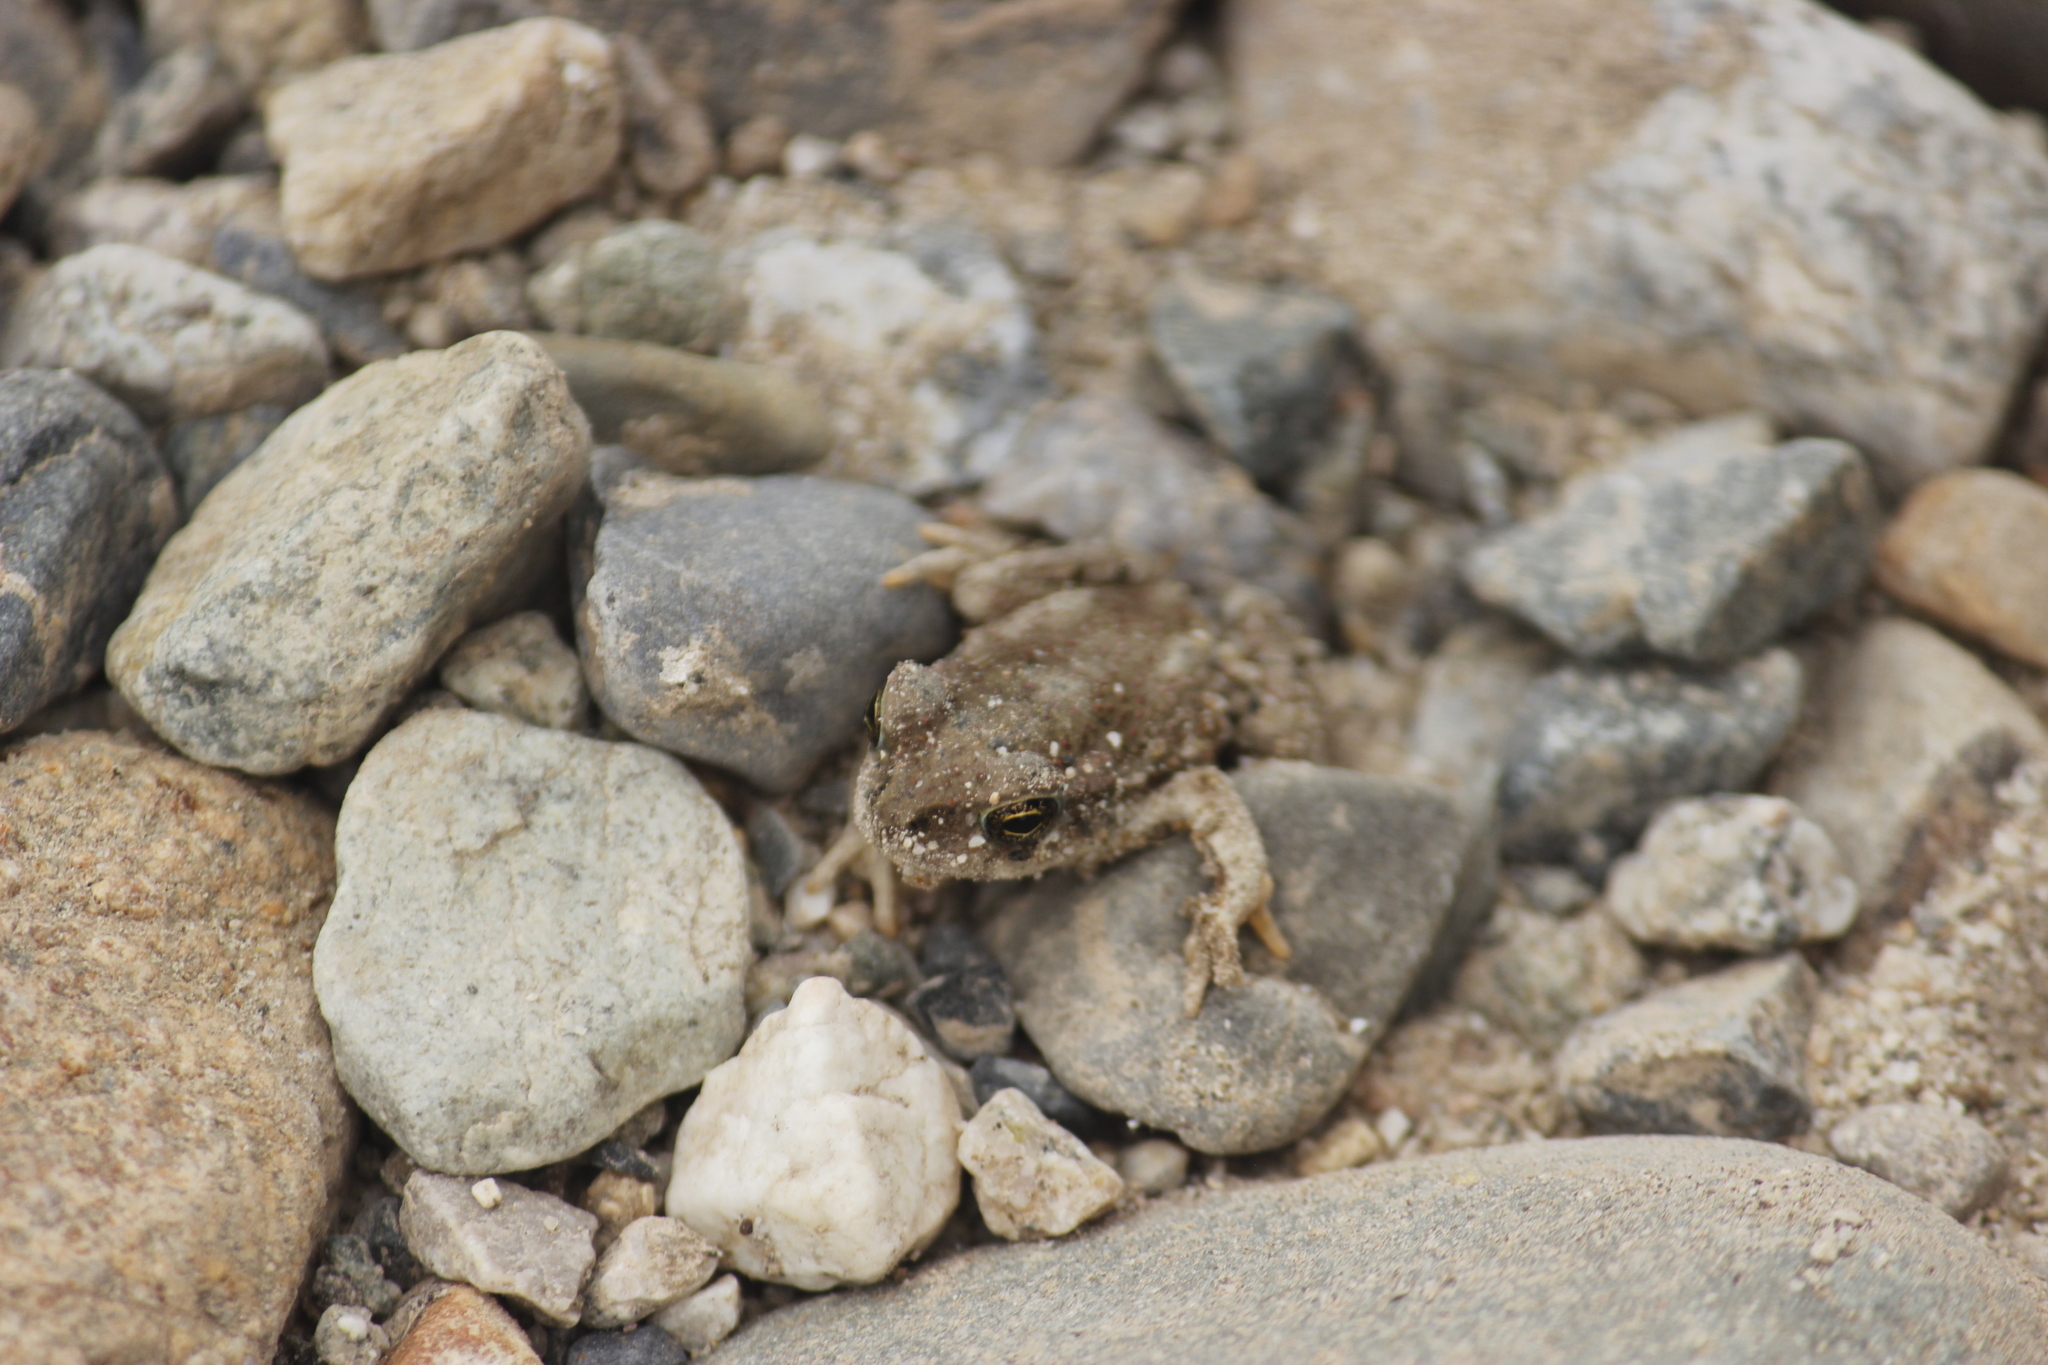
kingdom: Animalia
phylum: Chordata
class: Amphibia
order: Anura
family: Bufonidae
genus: Rhinella
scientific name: Rhinella limensis
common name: Peru coast toad
